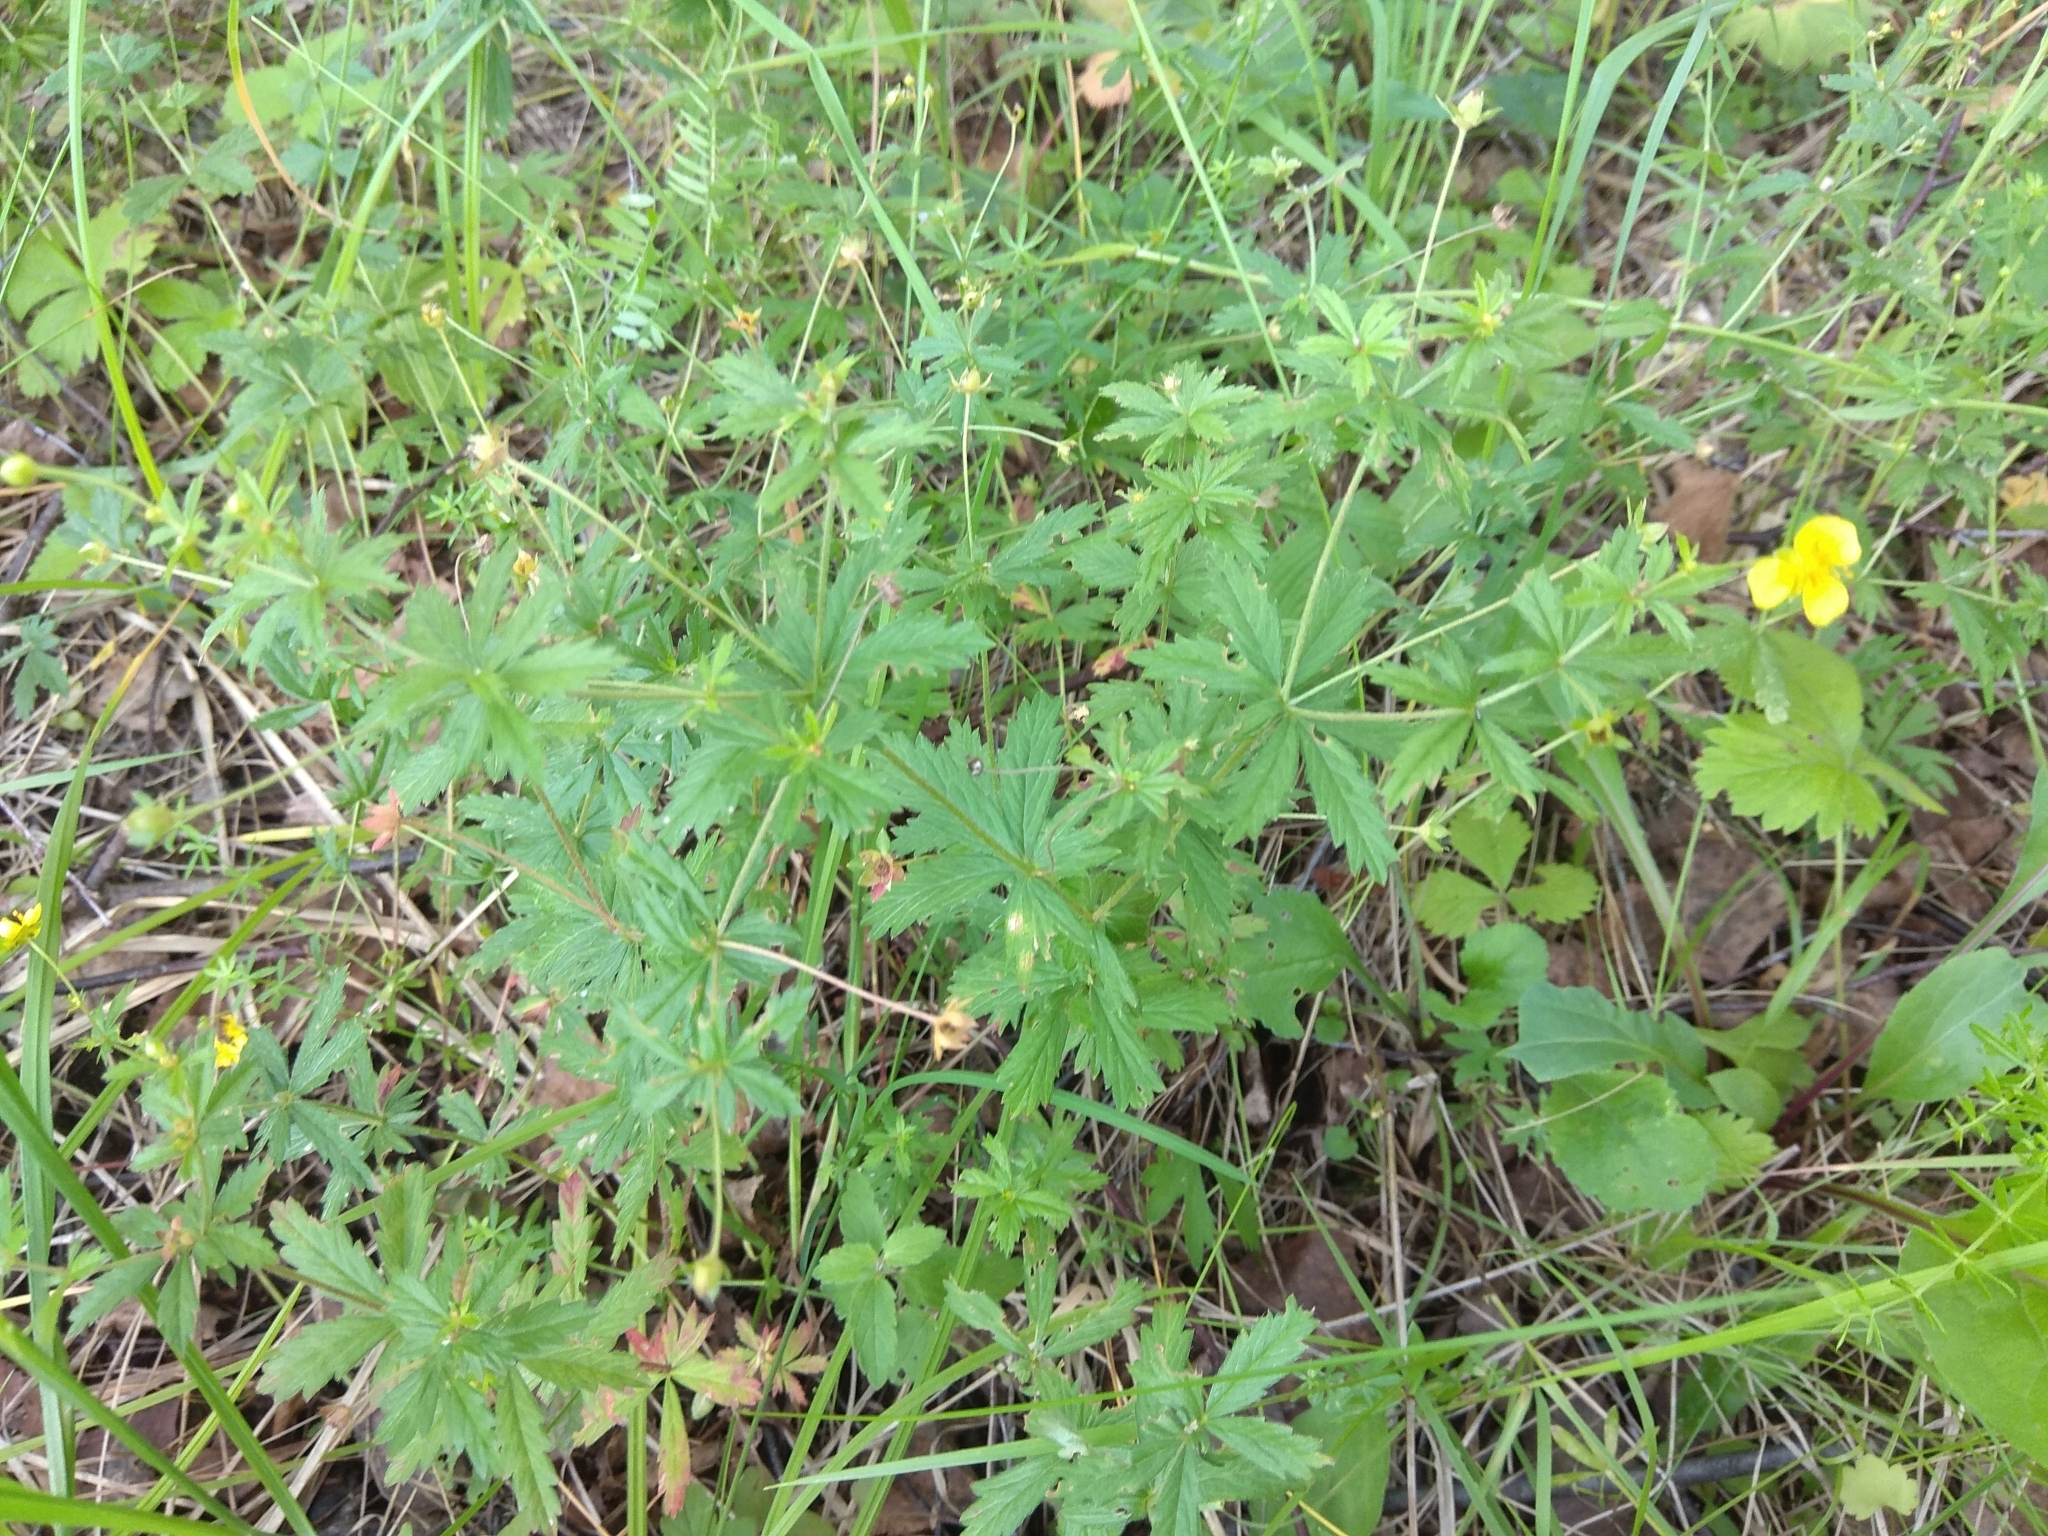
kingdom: Plantae
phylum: Tracheophyta
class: Magnoliopsida
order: Rosales
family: Rosaceae
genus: Potentilla
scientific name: Potentilla erecta
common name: Tormentil
